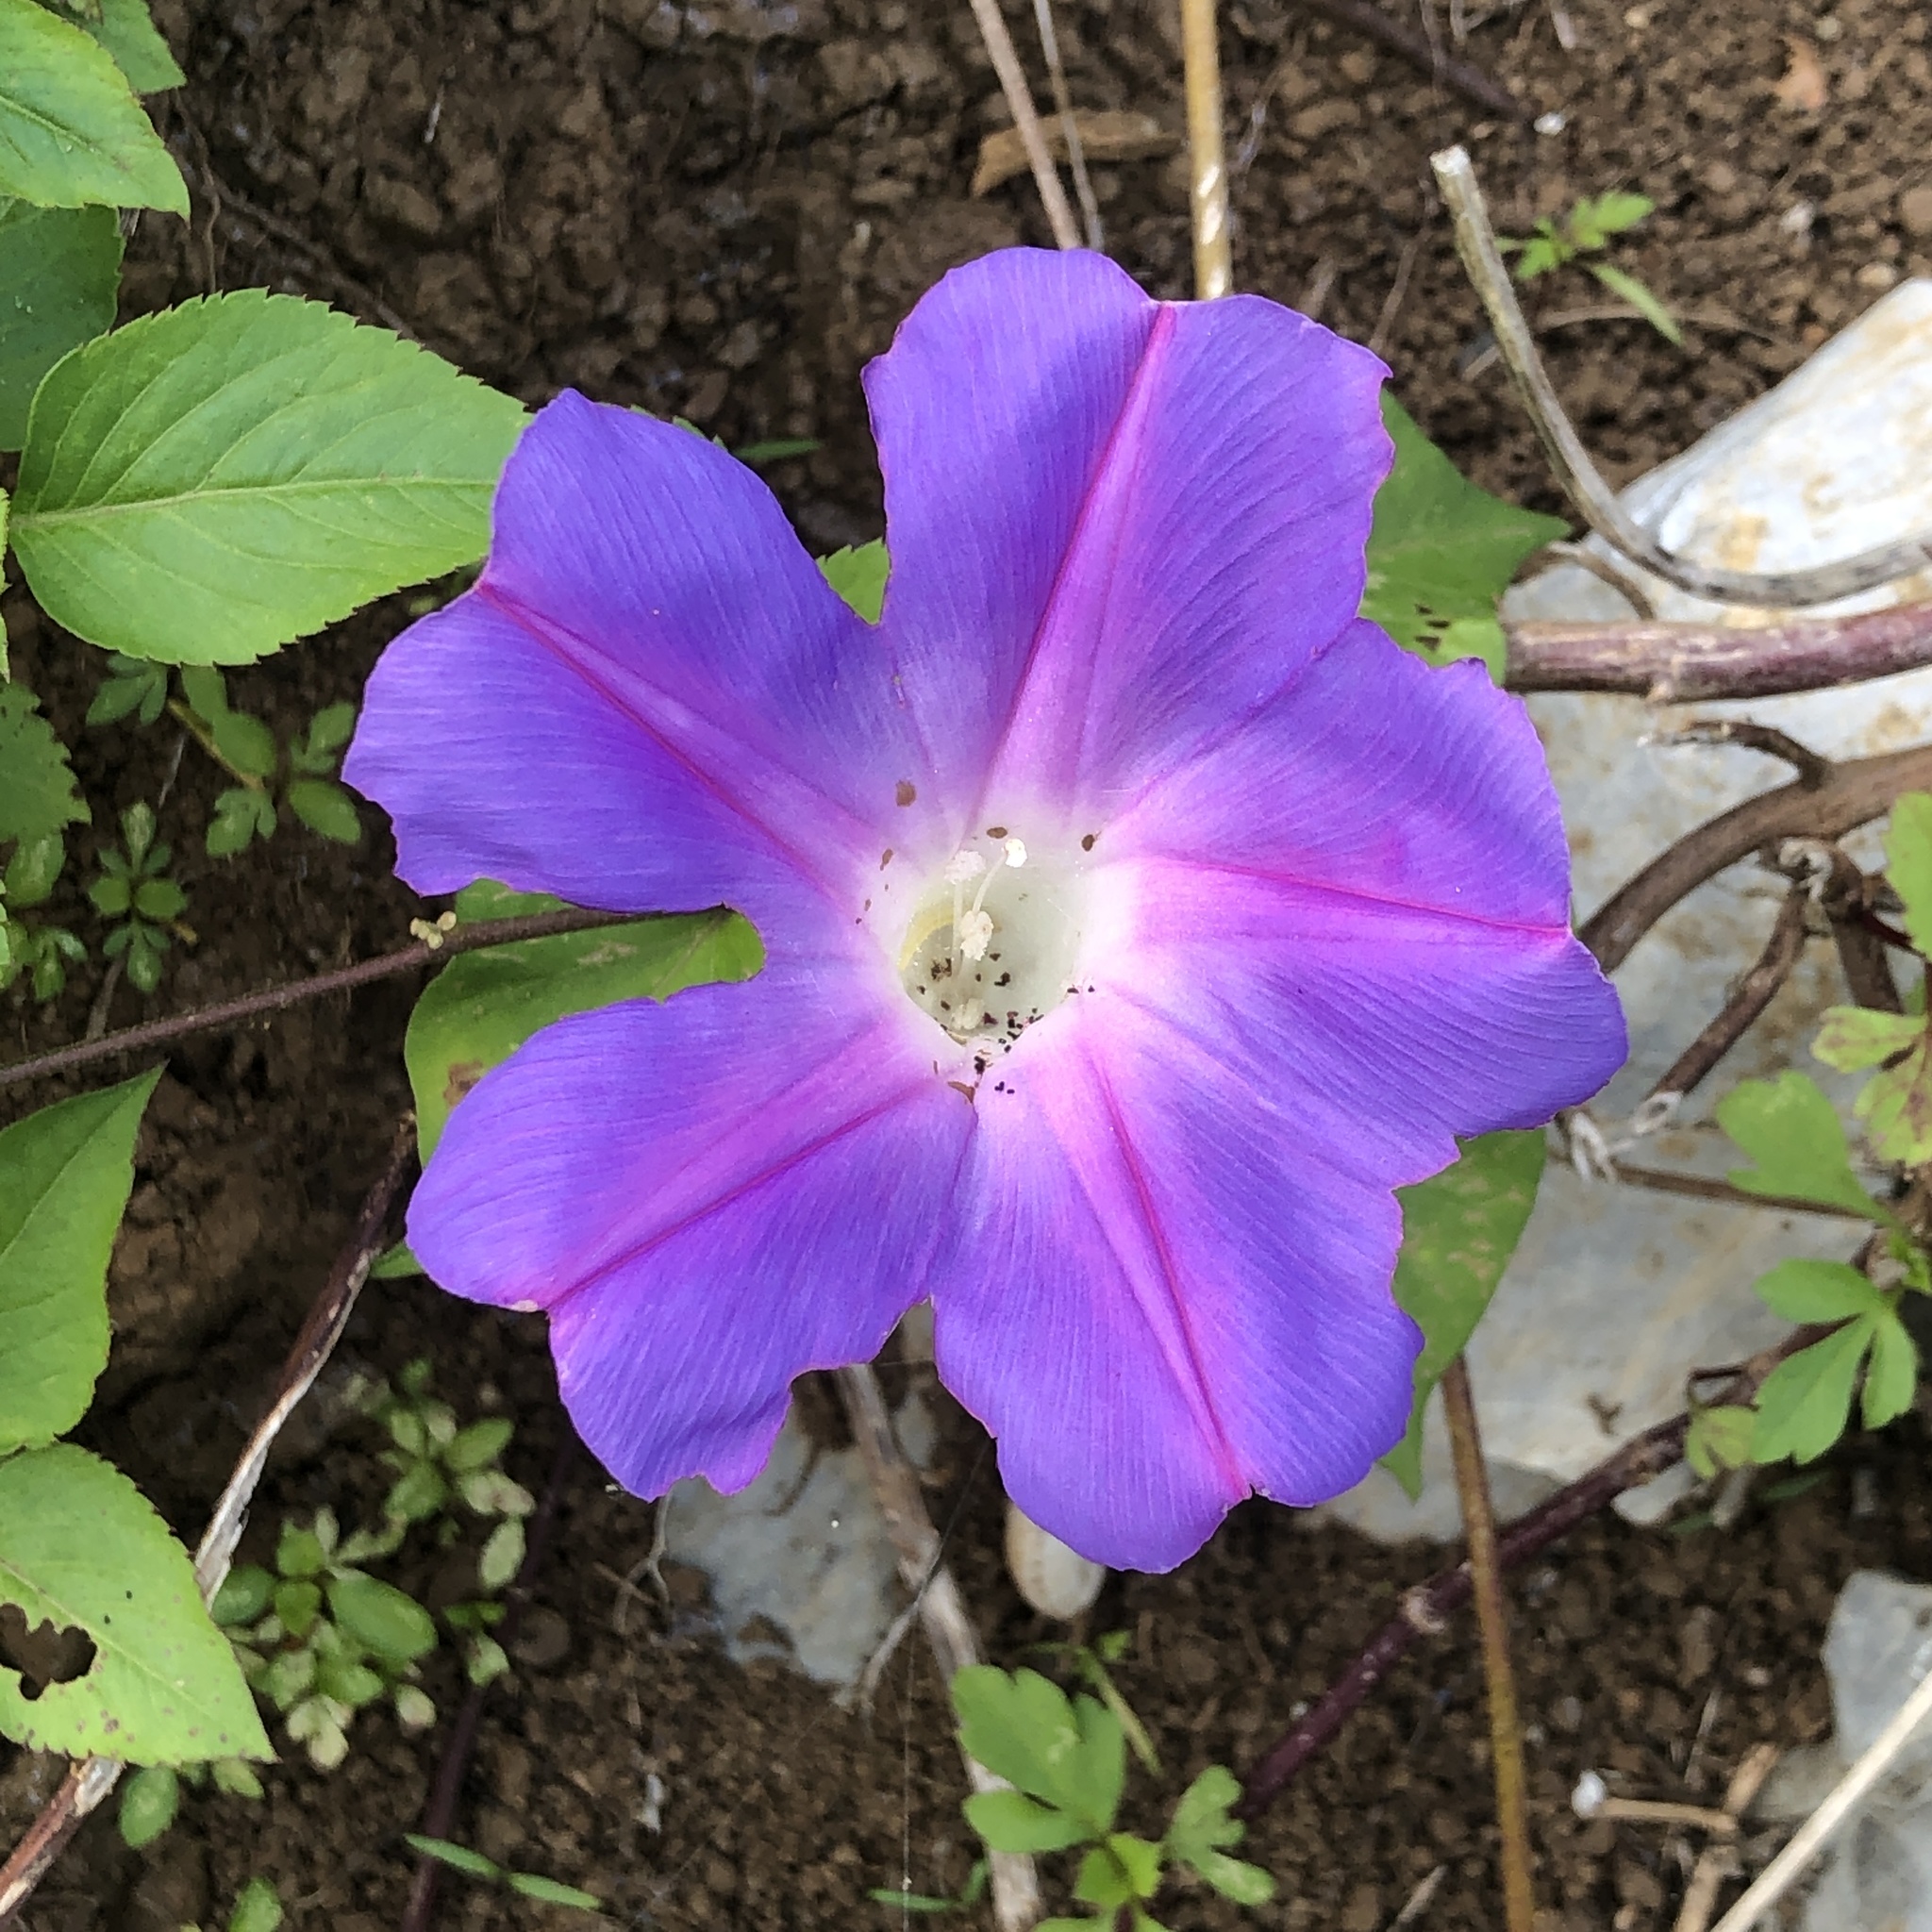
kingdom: Plantae
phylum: Tracheophyta
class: Magnoliopsida
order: Solanales
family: Convolvulaceae
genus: Ipomoea
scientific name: Ipomoea indica
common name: Blue dawnflower
